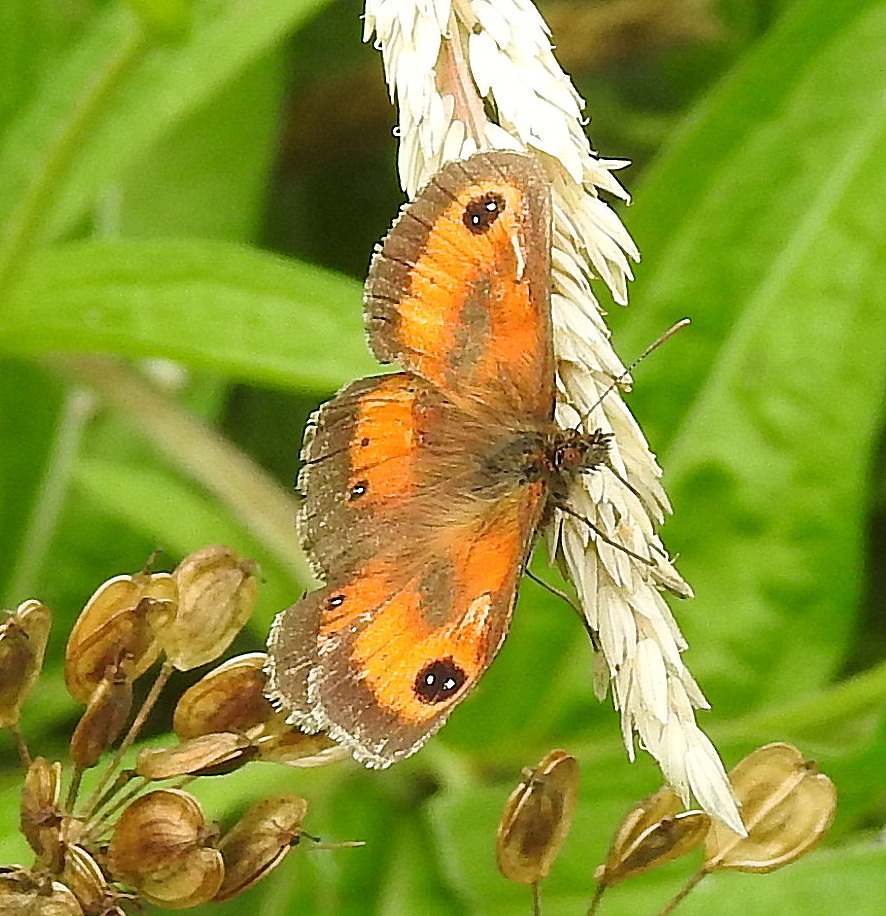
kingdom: Animalia
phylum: Arthropoda
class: Insecta
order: Lepidoptera
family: Nymphalidae
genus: Pyronia
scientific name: Pyronia tithonus
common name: Gatekeeper
